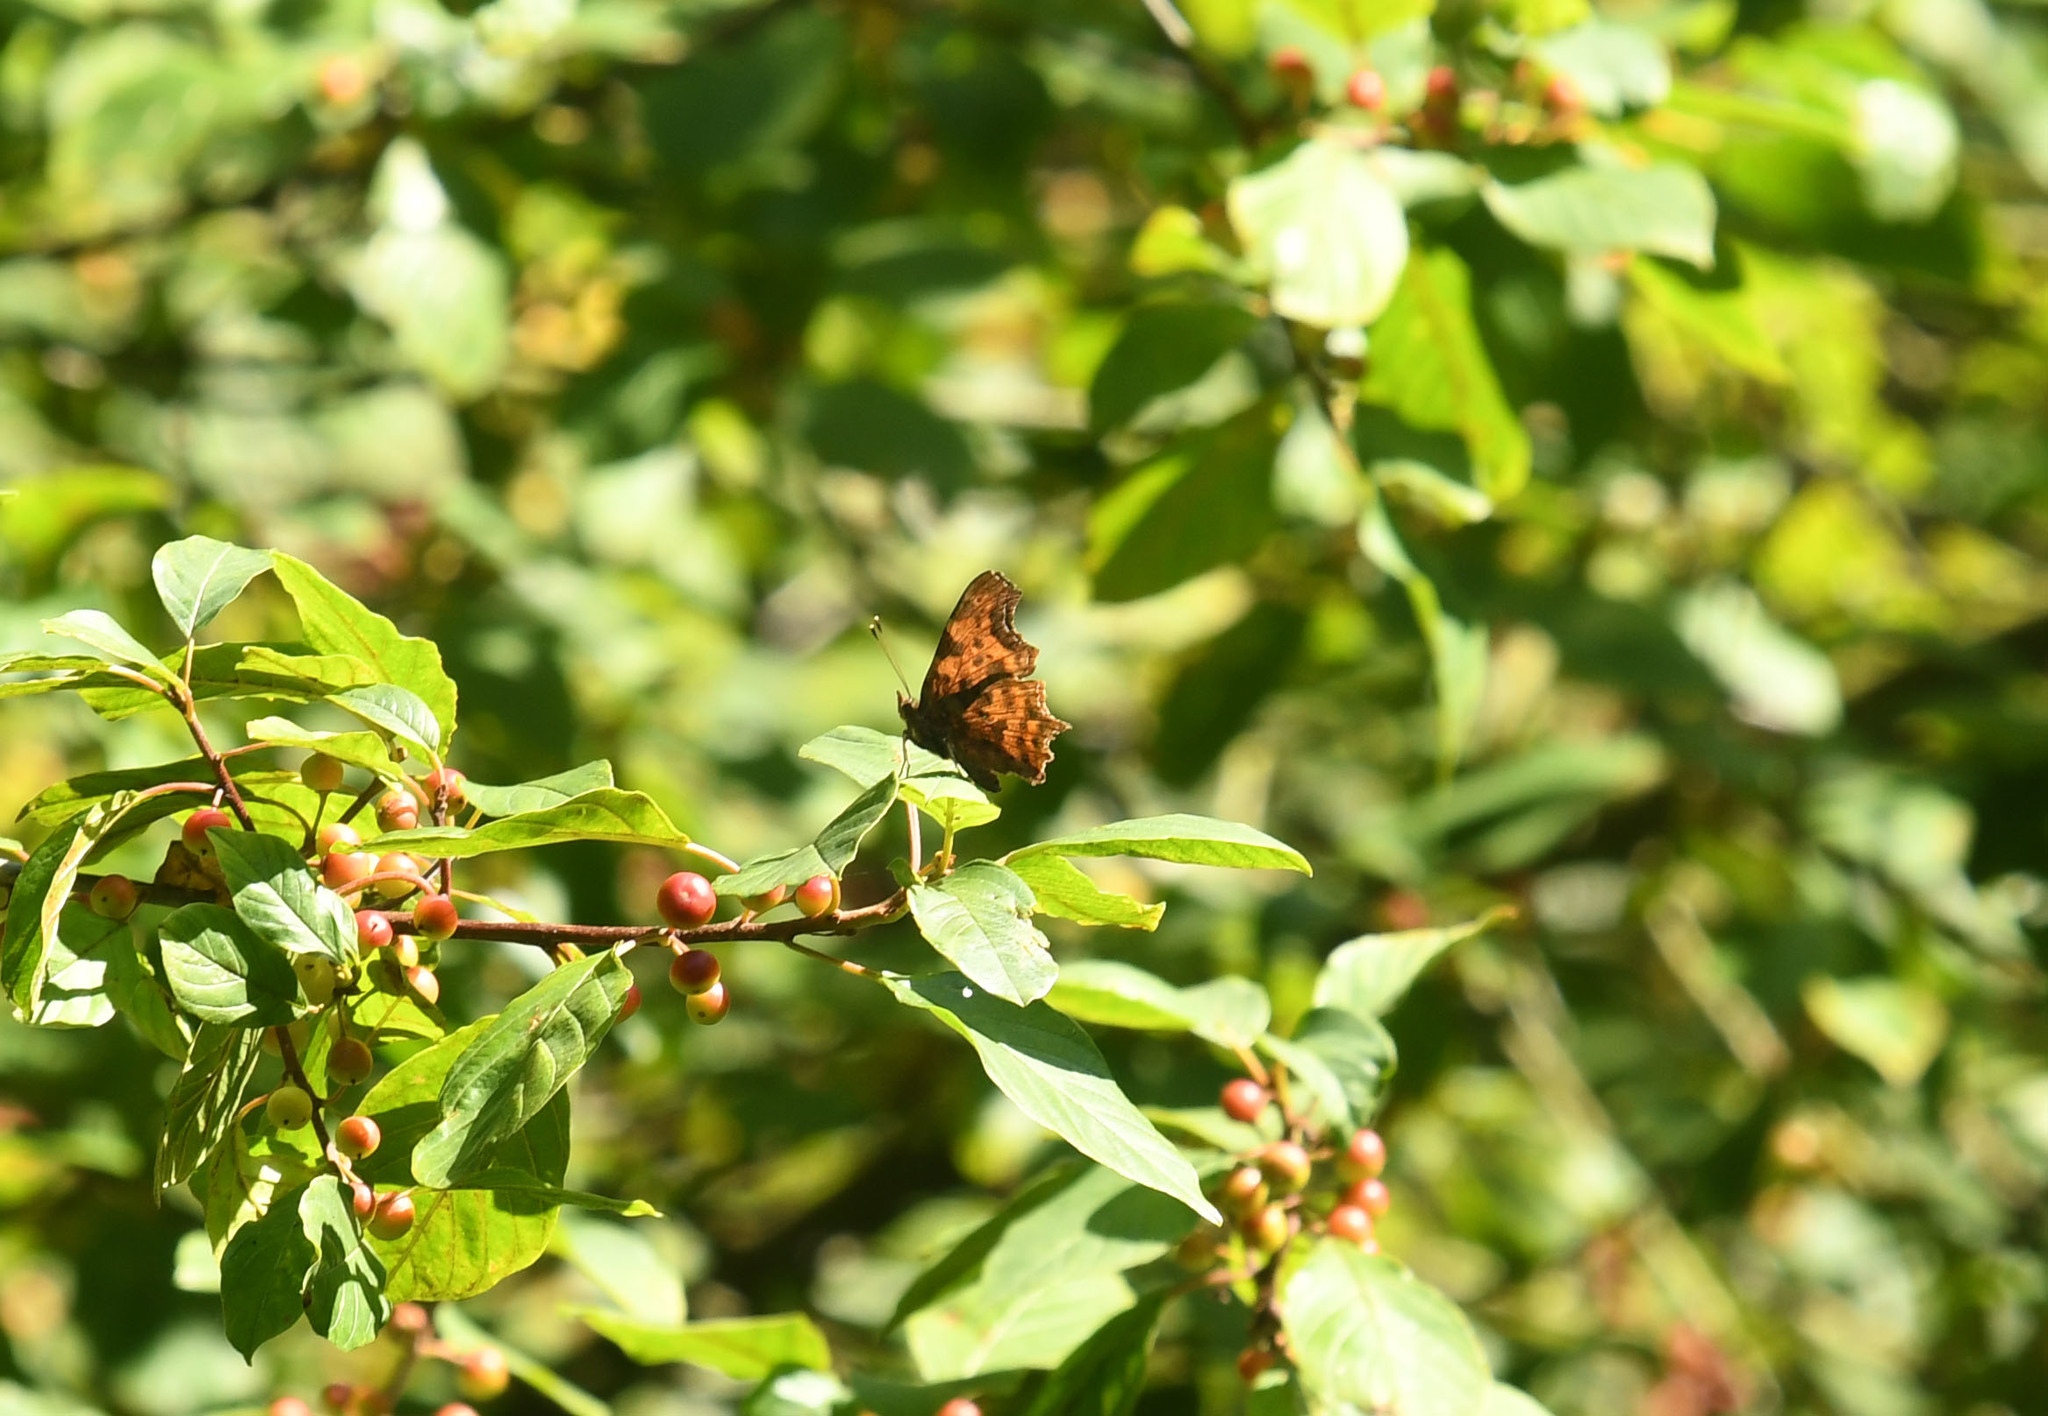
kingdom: Animalia
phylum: Arthropoda
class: Insecta
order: Lepidoptera
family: Nymphalidae
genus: Polygonia
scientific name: Polygonia c-album
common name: Comma
